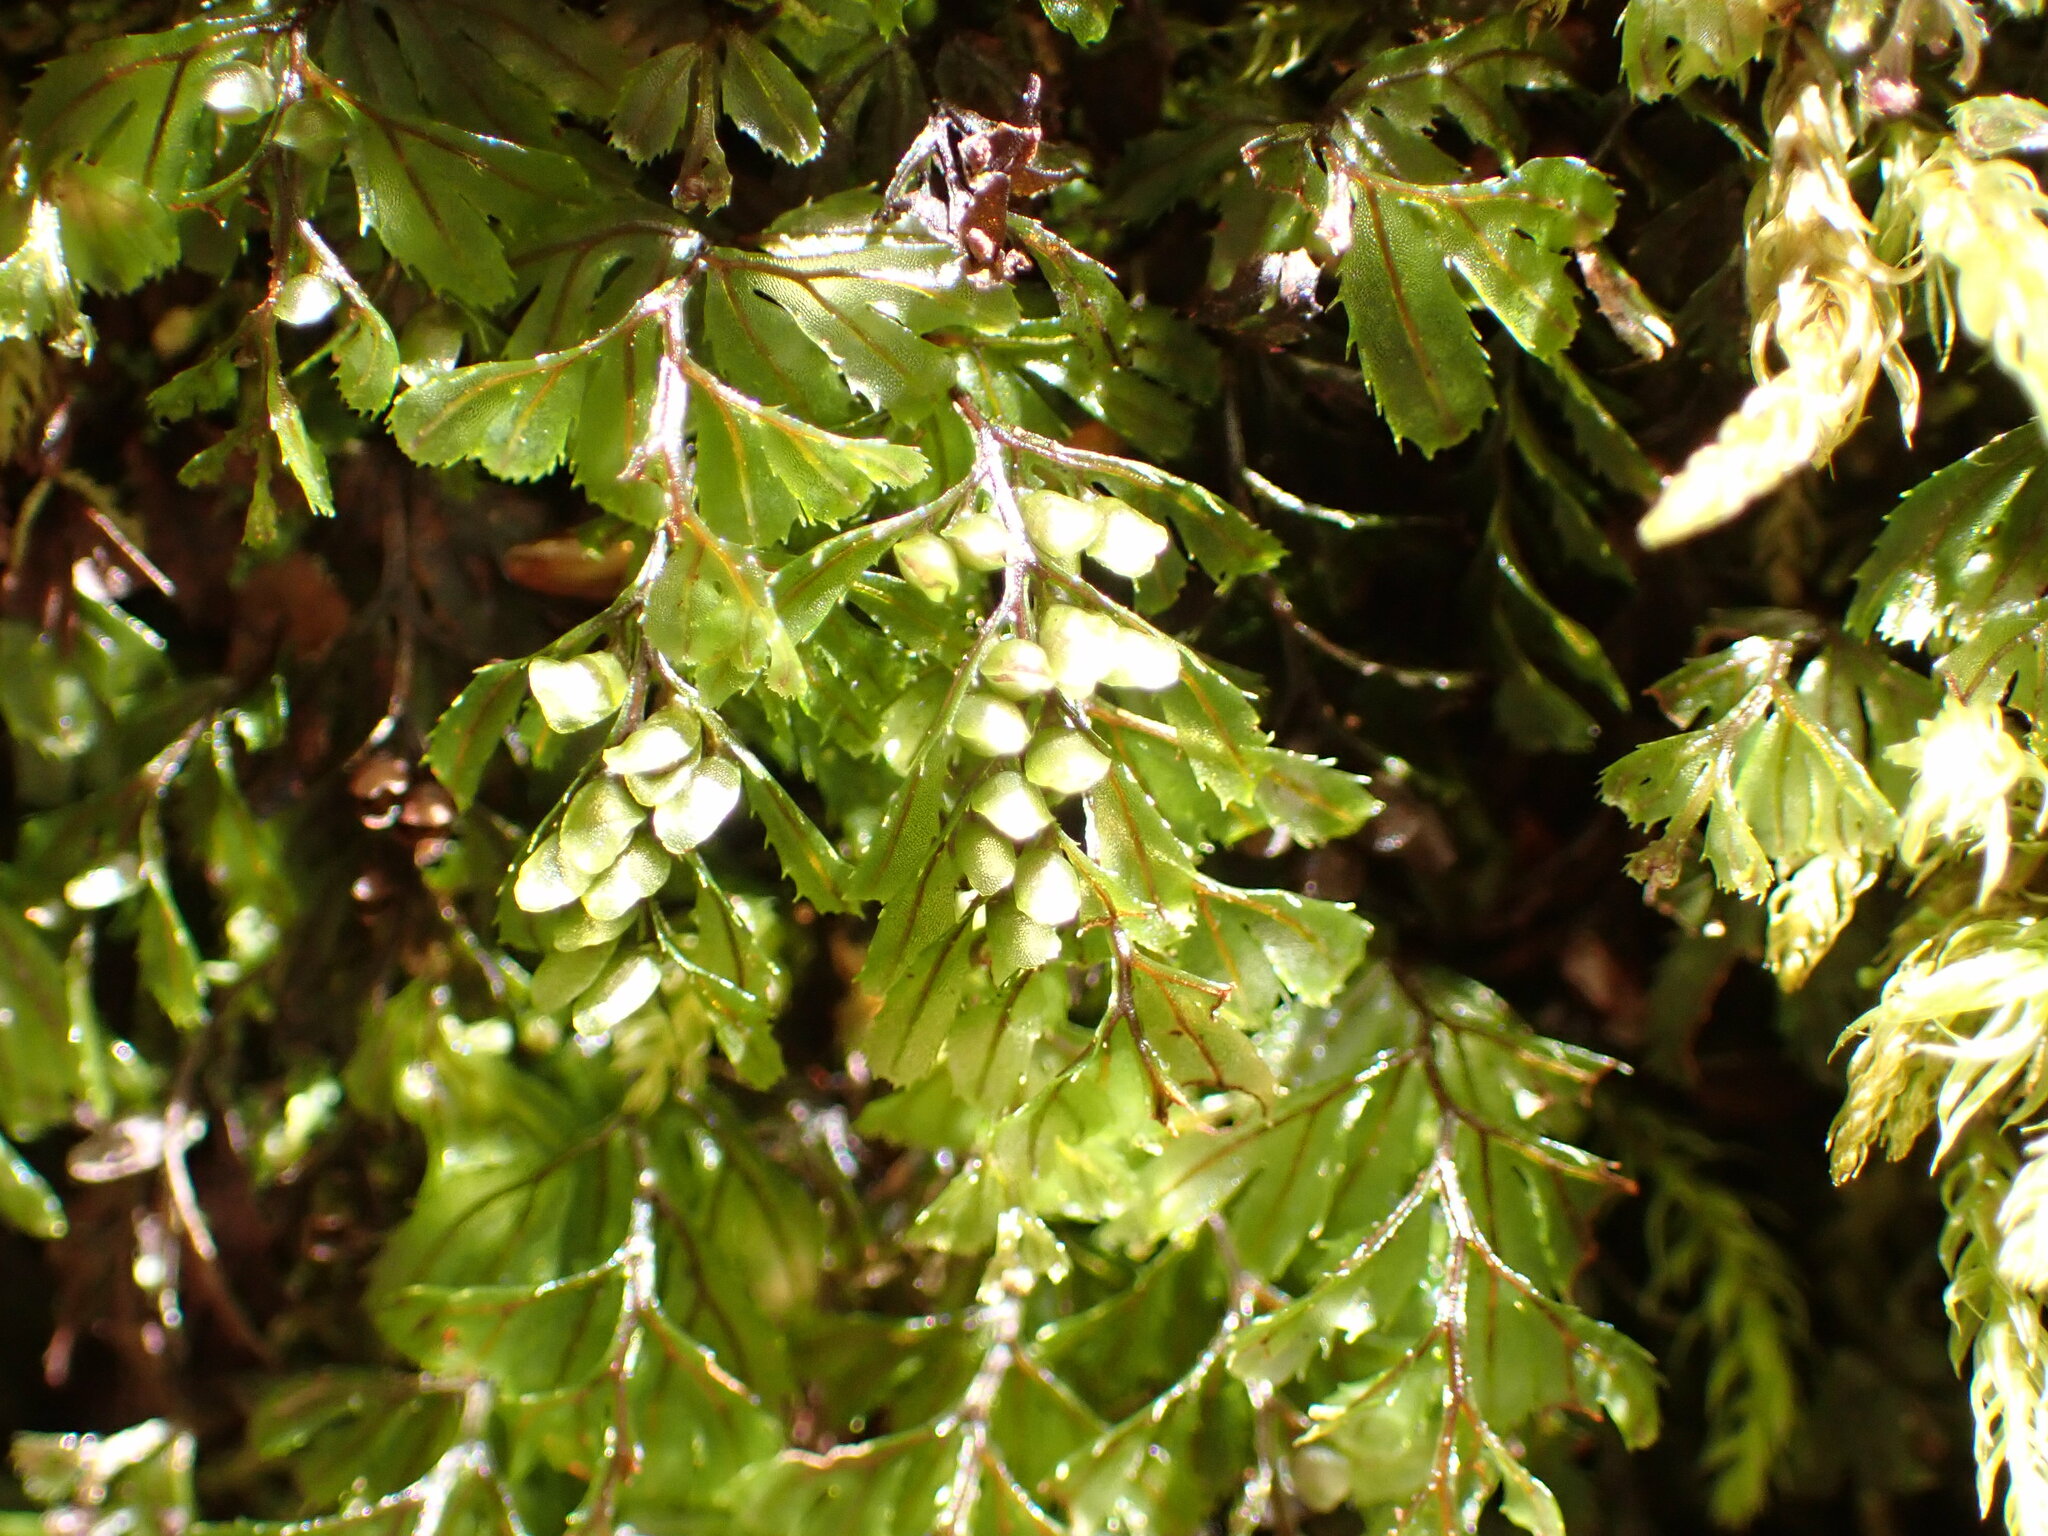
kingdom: Plantae
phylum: Tracheophyta
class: Polypodiopsida
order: Hymenophyllales
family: Hymenophyllaceae
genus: Hymenophyllum
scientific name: Hymenophyllum peltatum
